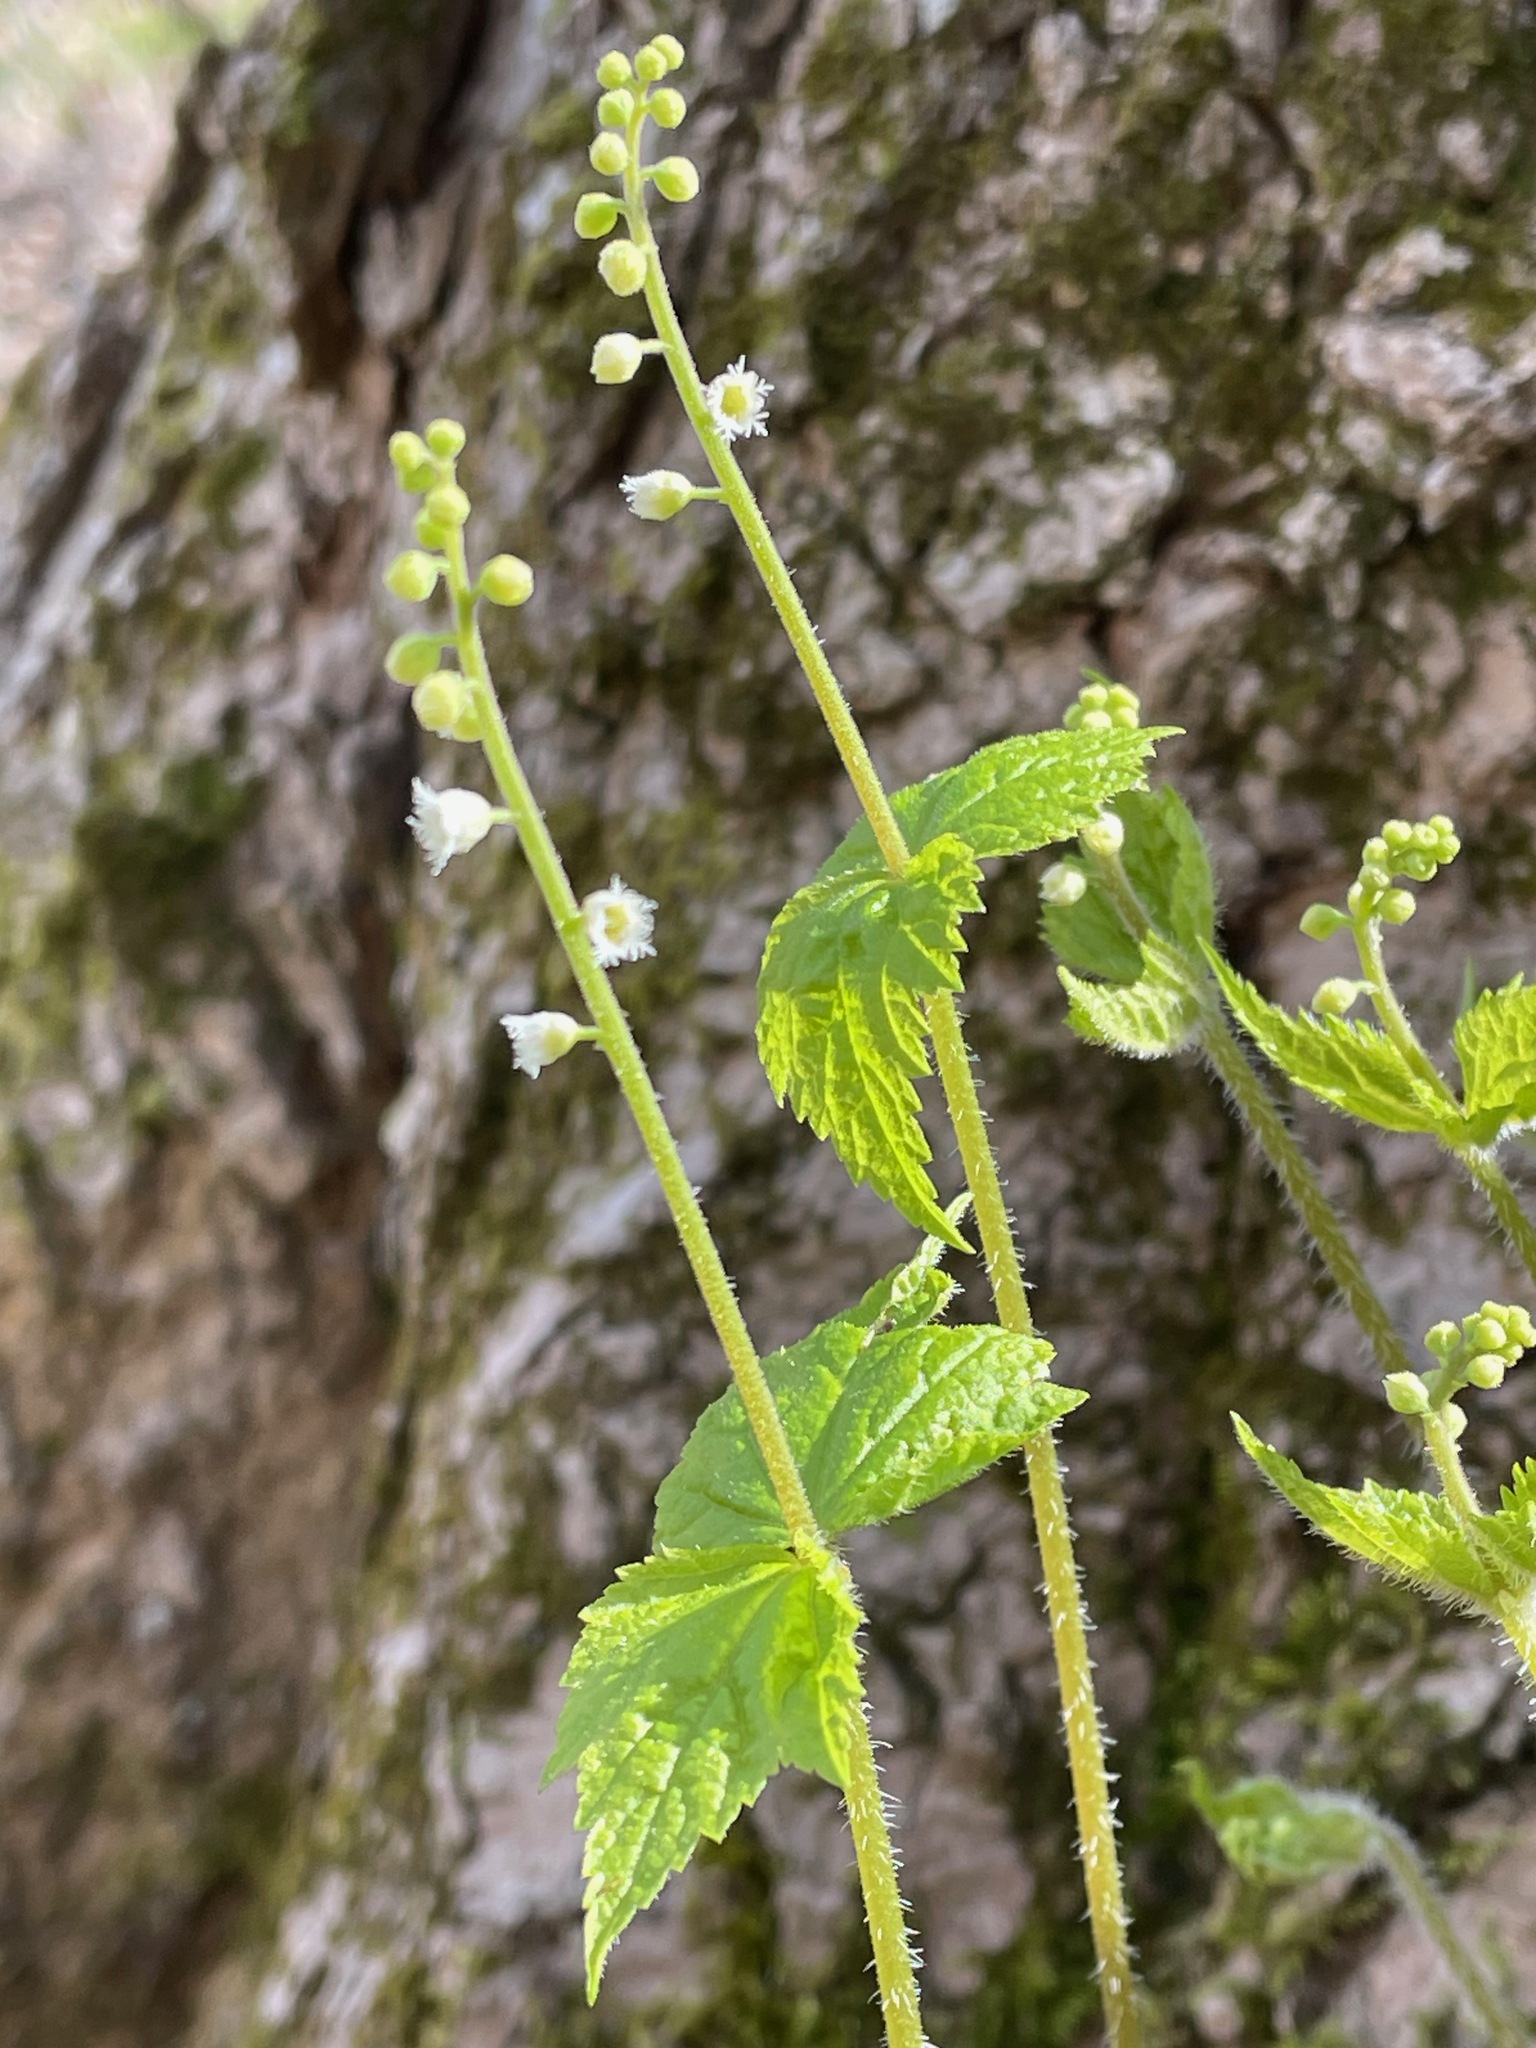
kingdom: Plantae
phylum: Tracheophyta
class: Magnoliopsida
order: Saxifragales
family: Saxifragaceae
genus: Mitella
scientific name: Mitella diphylla
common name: Coolwort
